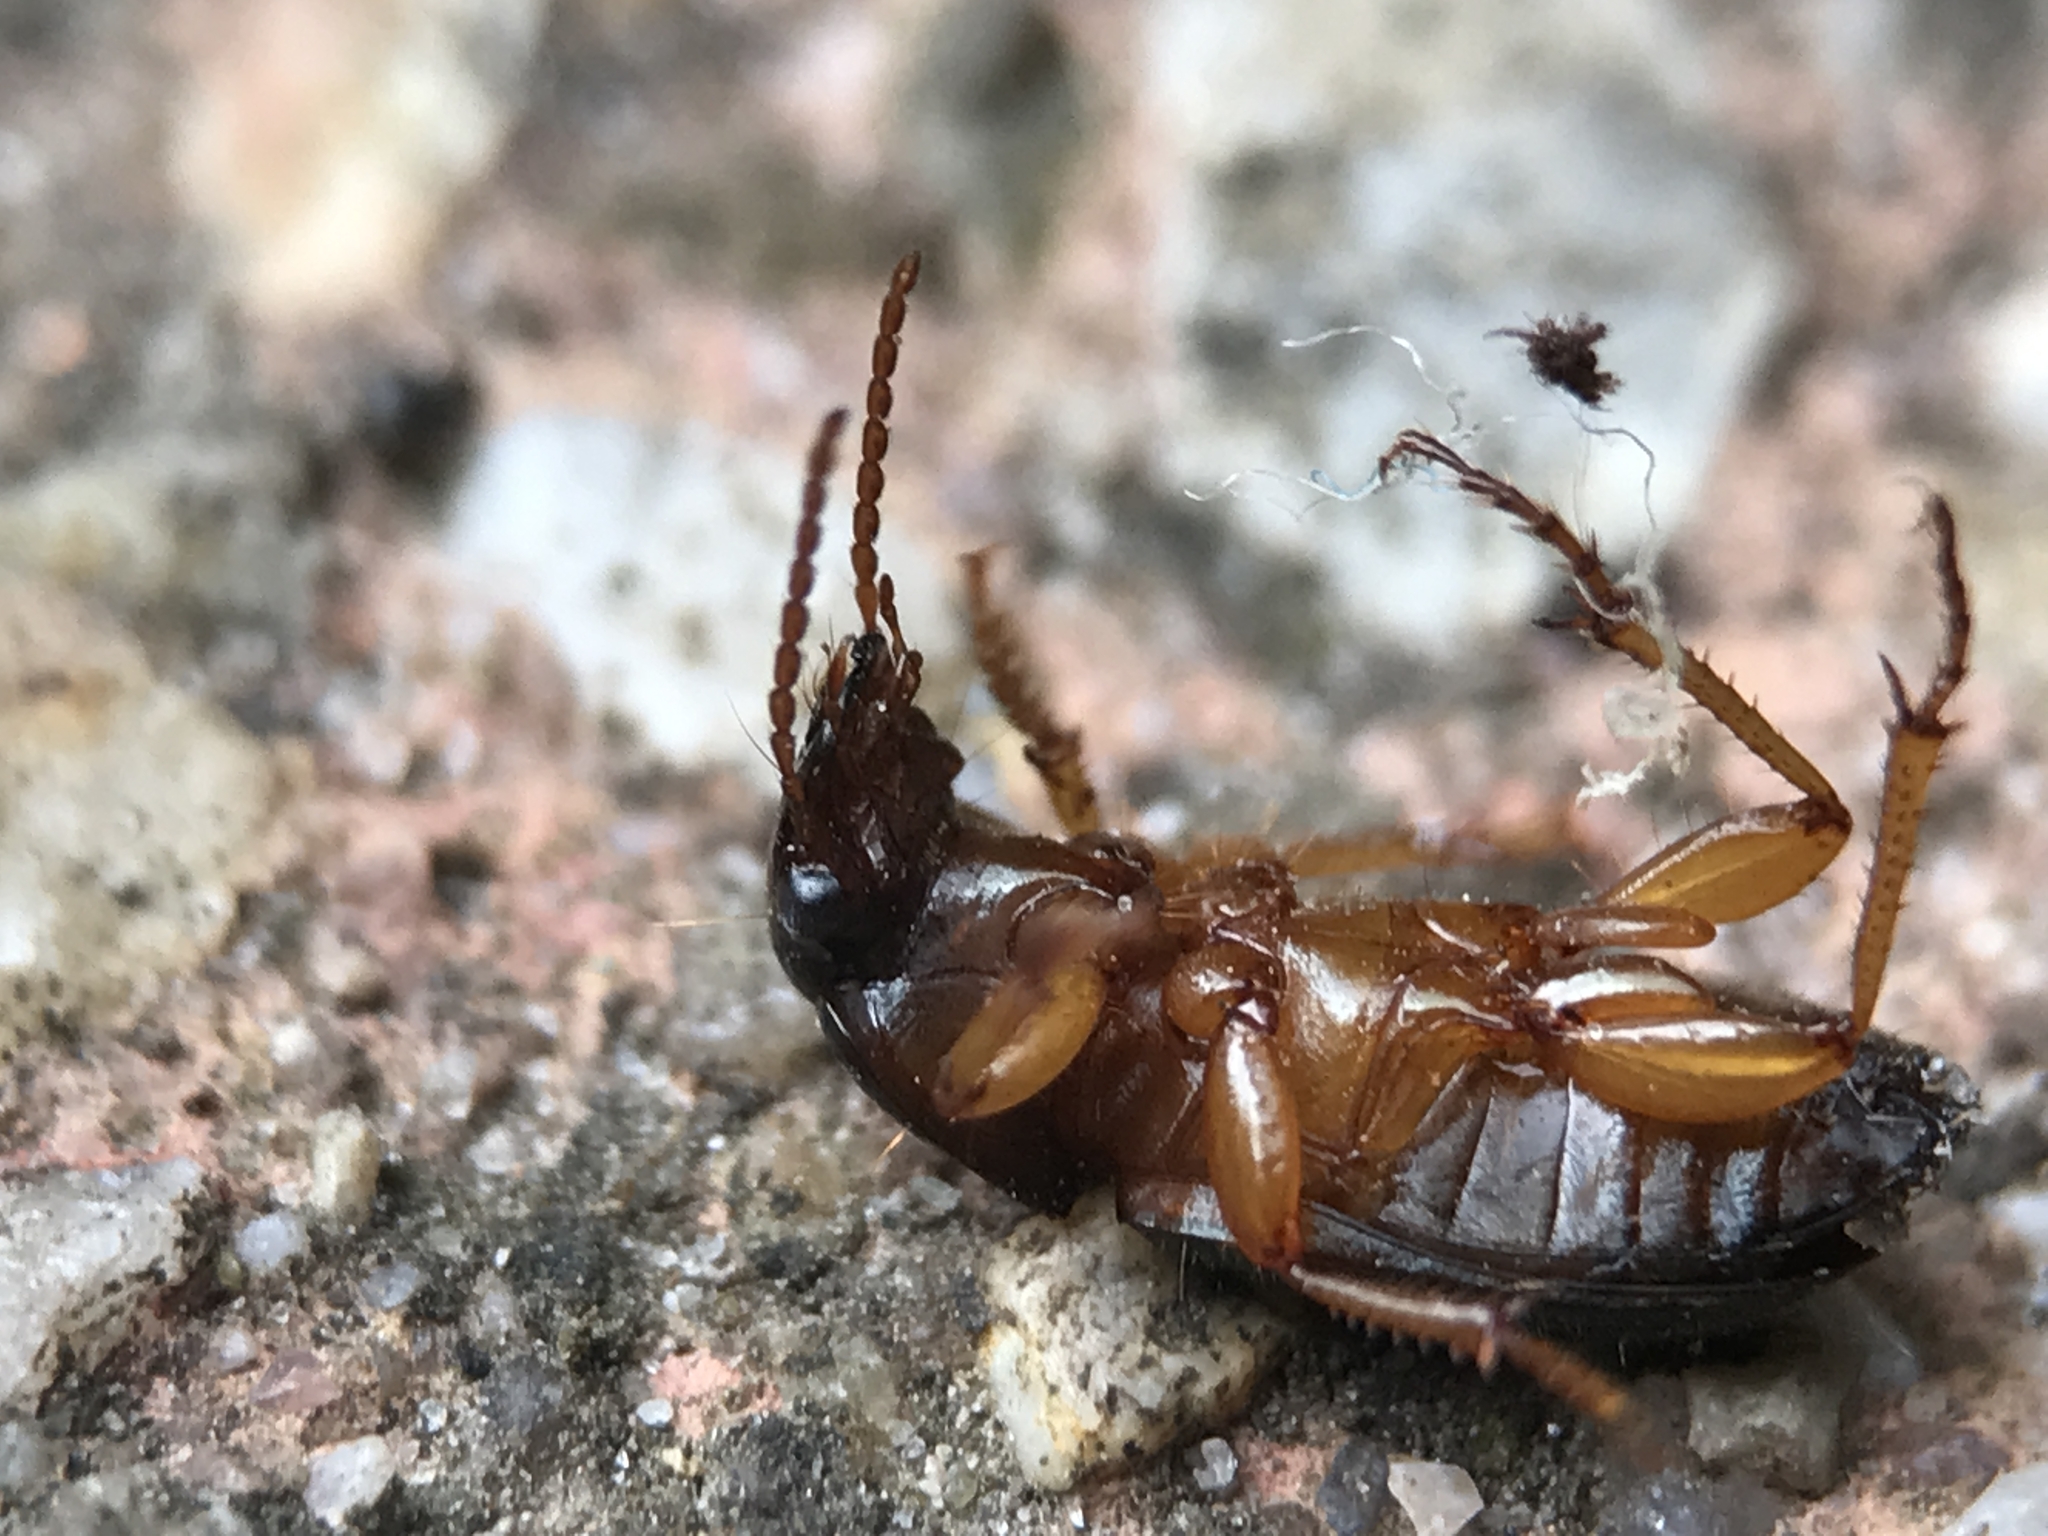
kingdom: Animalia
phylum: Arthropoda
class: Insecta
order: Coleoptera
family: Carabidae
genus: Harpalus
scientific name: Harpalus affinis
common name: Polychrome harp ground beetle
